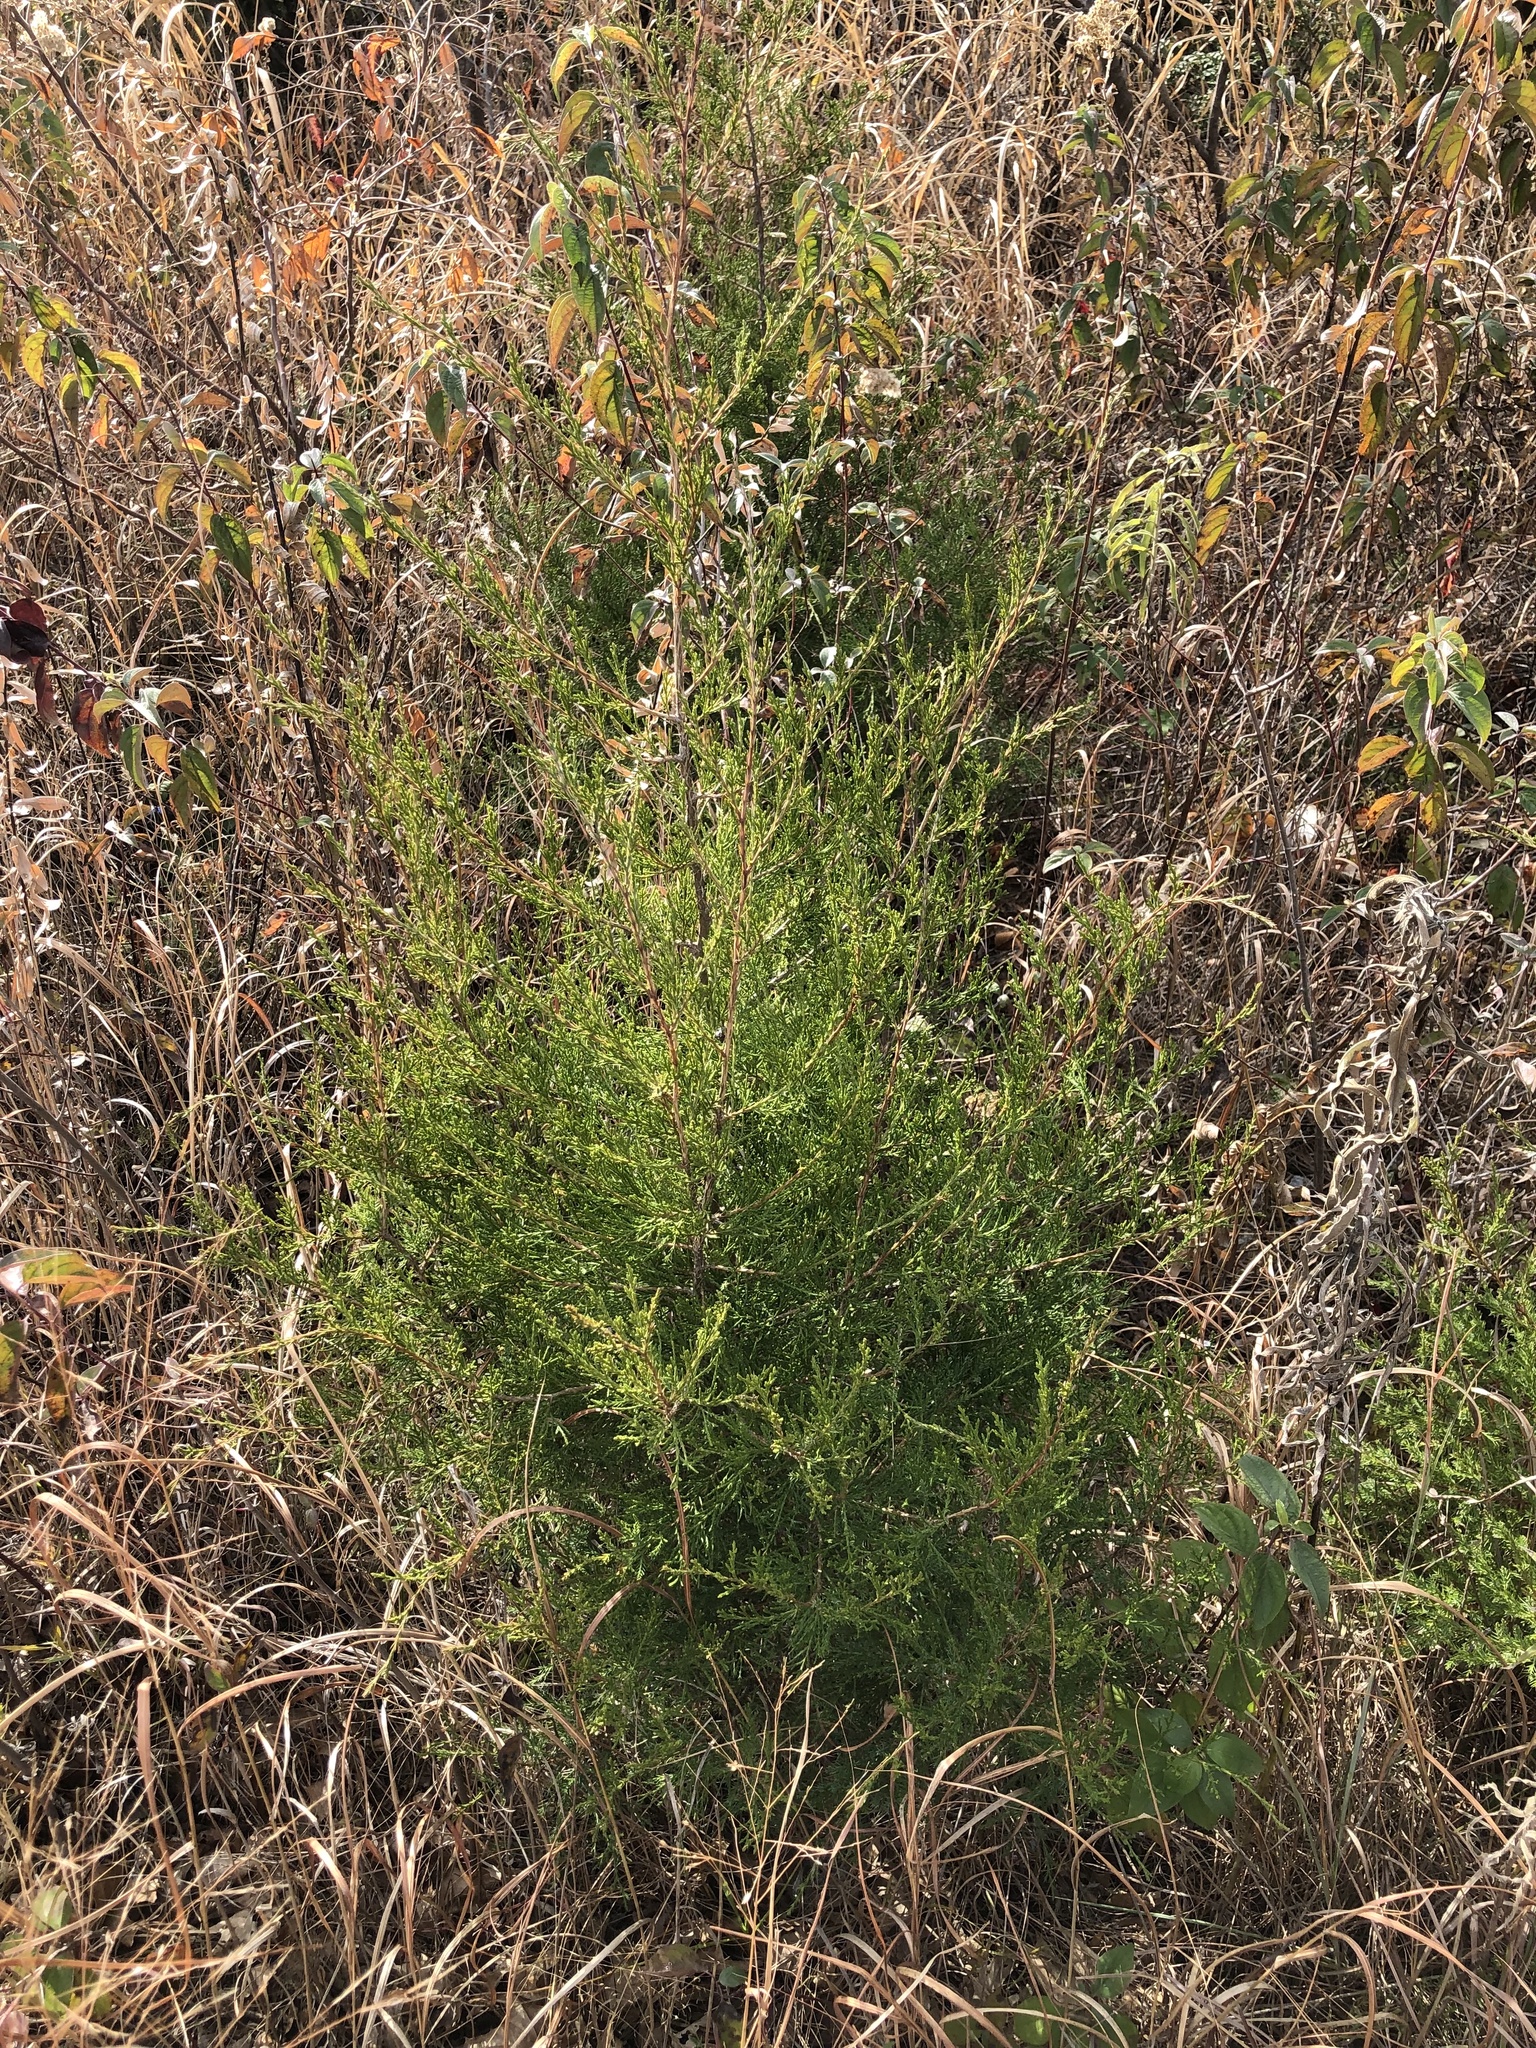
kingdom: Plantae
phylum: Tracheophyta
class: Pinopsida
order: Pinales
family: Cupressaceae
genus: Juniperus
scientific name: Juniperus virginiana
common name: Red juniper
